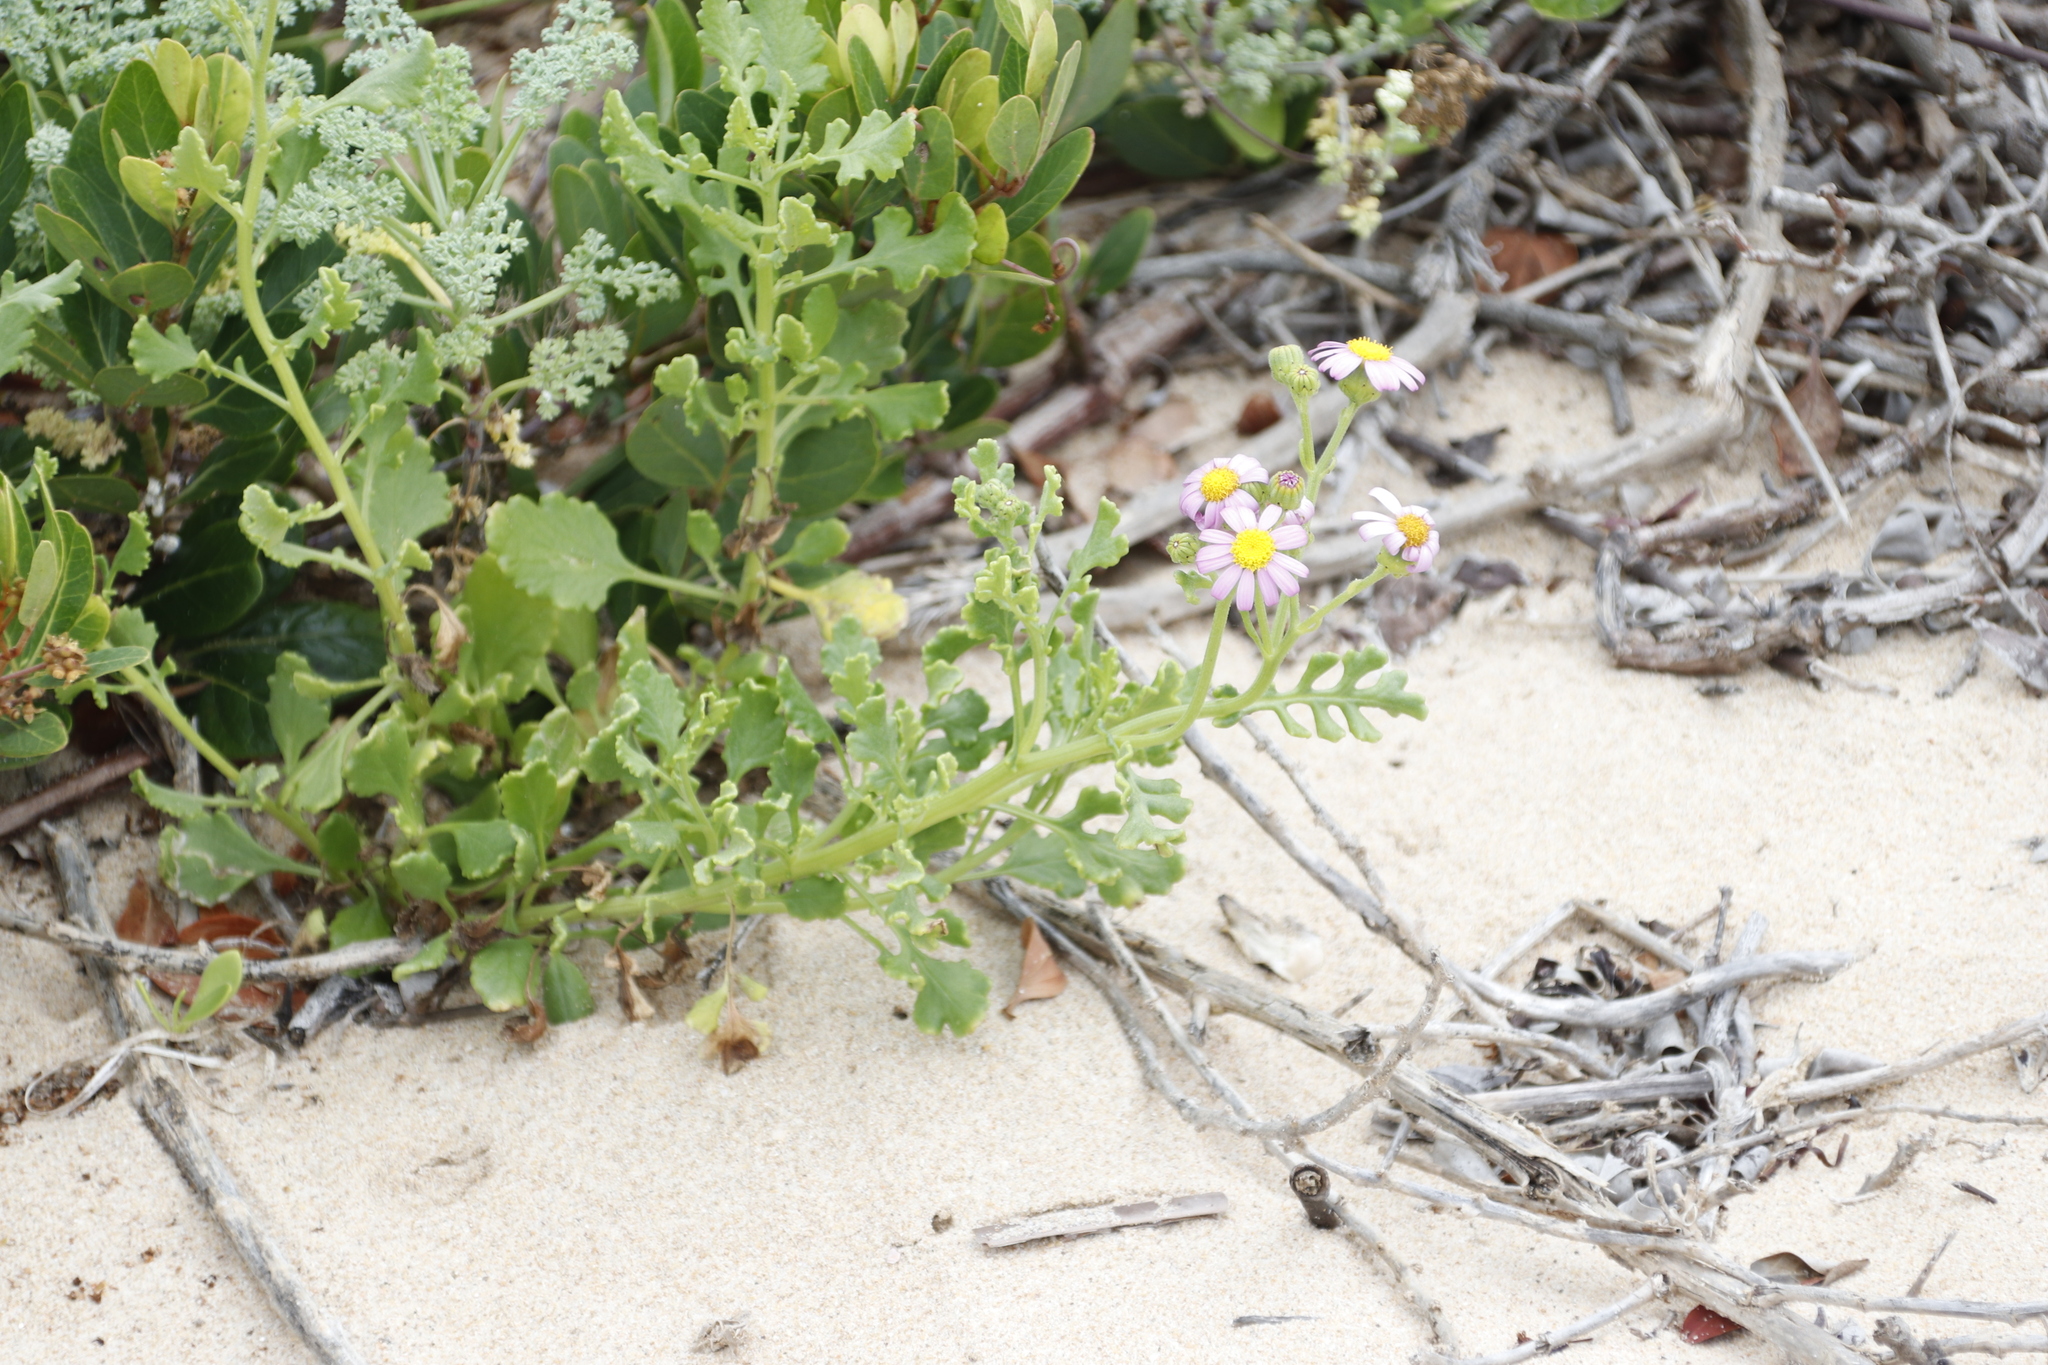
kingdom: Plantae
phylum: Tracheophyta
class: Magnoliopsida
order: Asterales
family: Asteraceae
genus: Senecio
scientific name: Senecio elegans
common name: Purple groundsel
